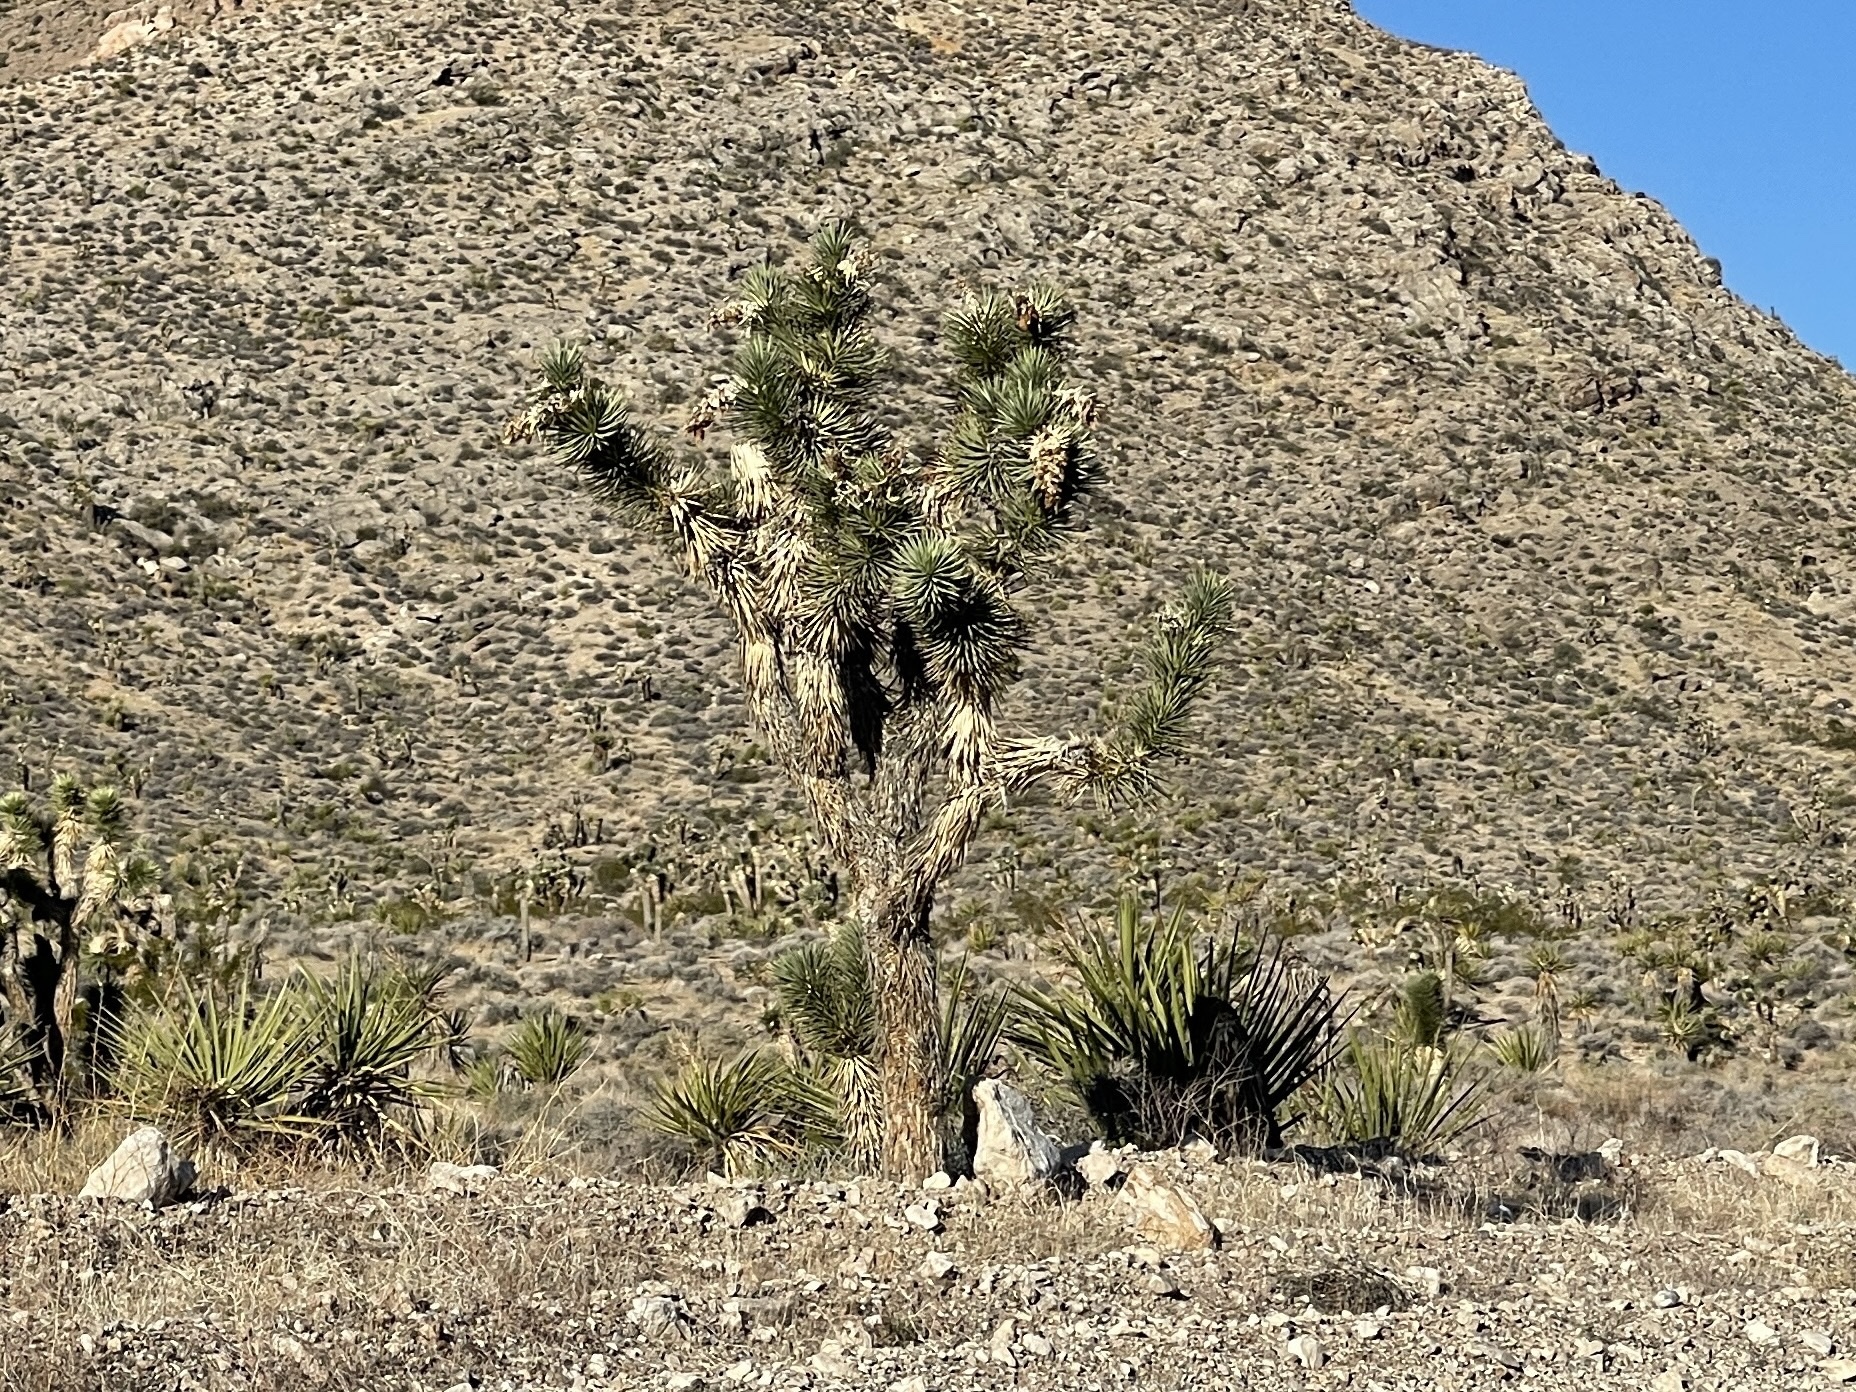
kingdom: Plantae
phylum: Tracheophyta
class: Liliopsida
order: Asparagales
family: Asparagaceae
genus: Yucca
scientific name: Yucca brevifolia
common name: Joshua tree
